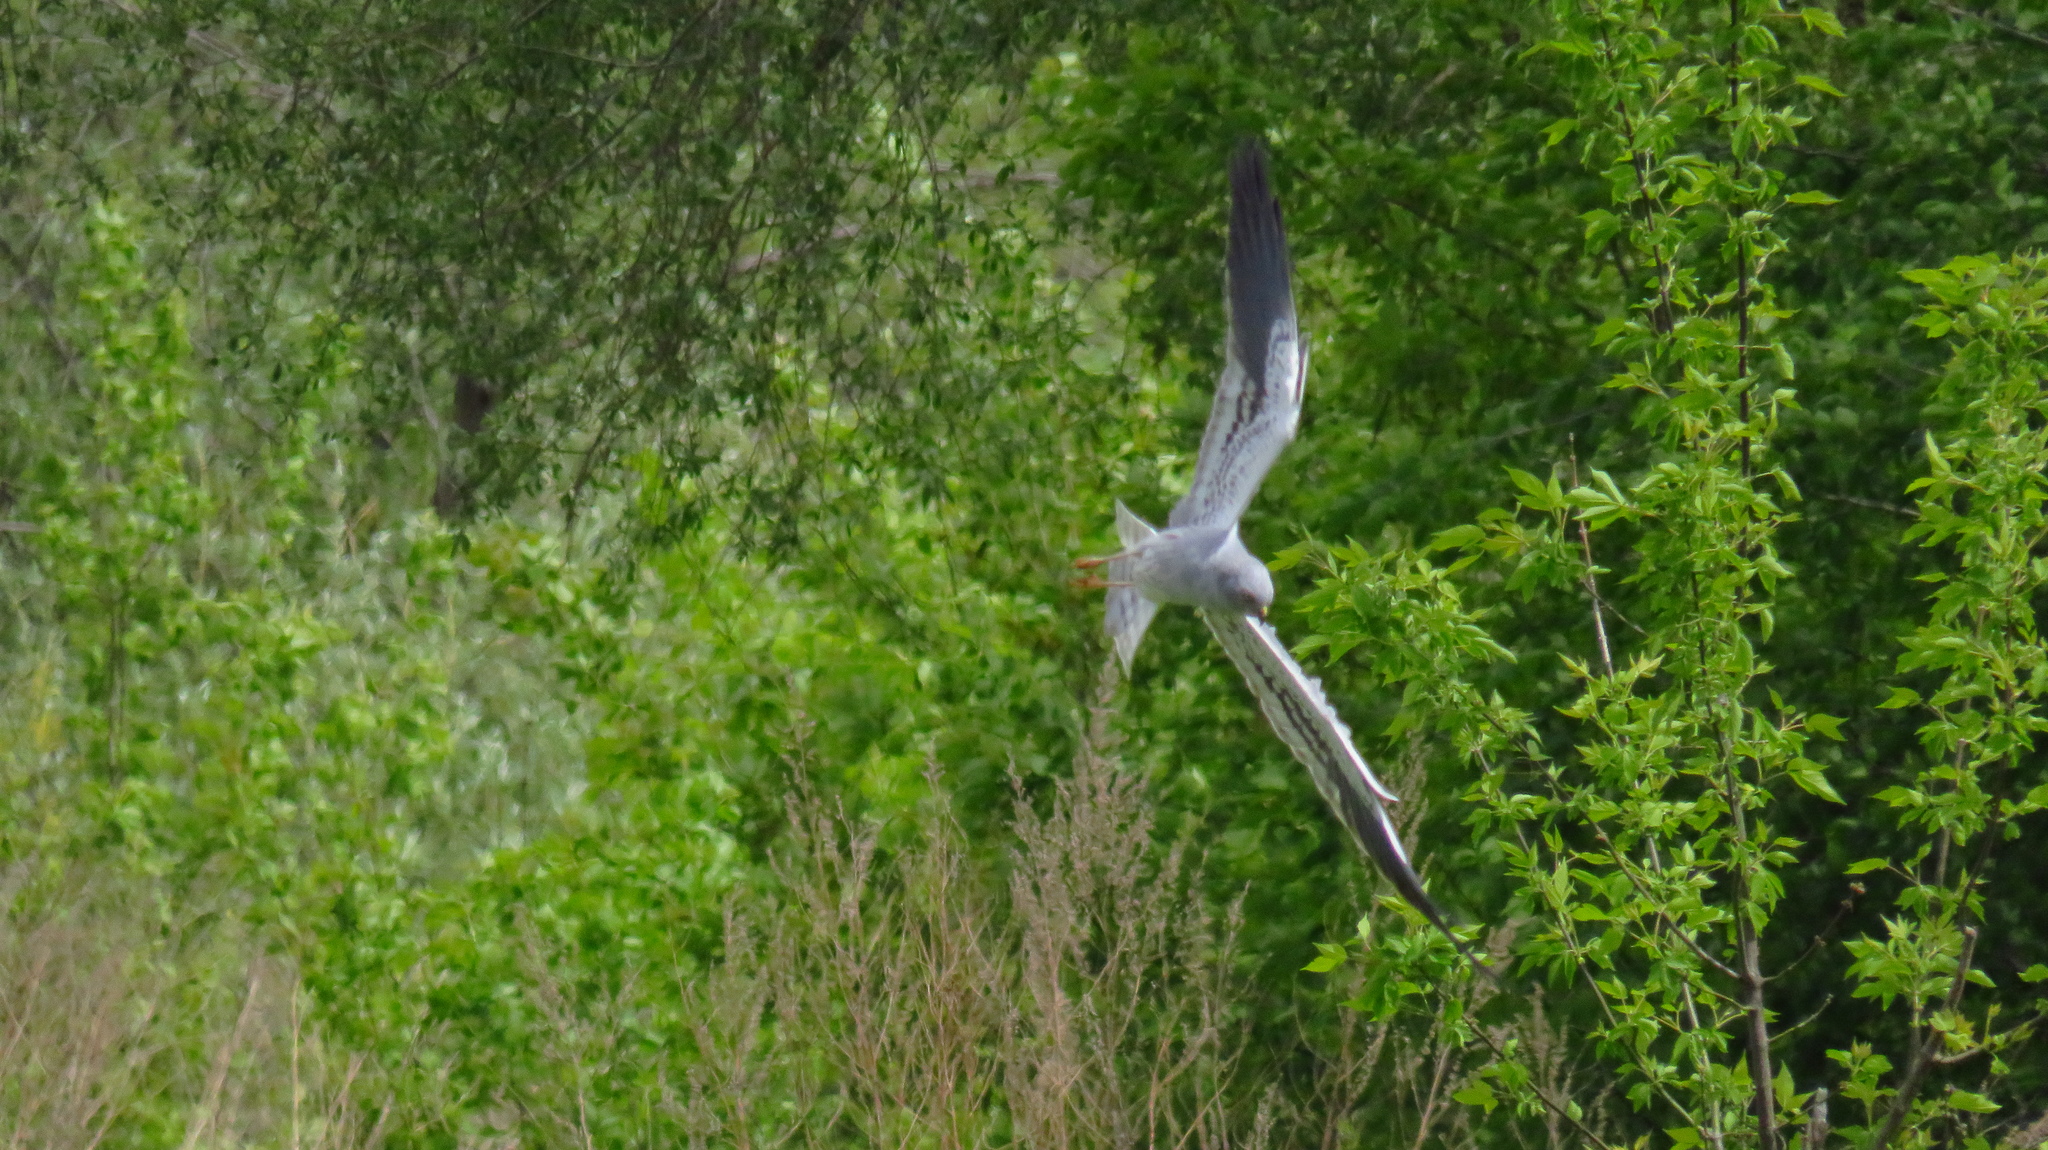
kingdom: Animalia
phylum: Chordata
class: Aves
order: Accipitriformes
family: Accipitridae
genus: Circus
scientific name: Circus pygargus
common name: Montagu's harrier
